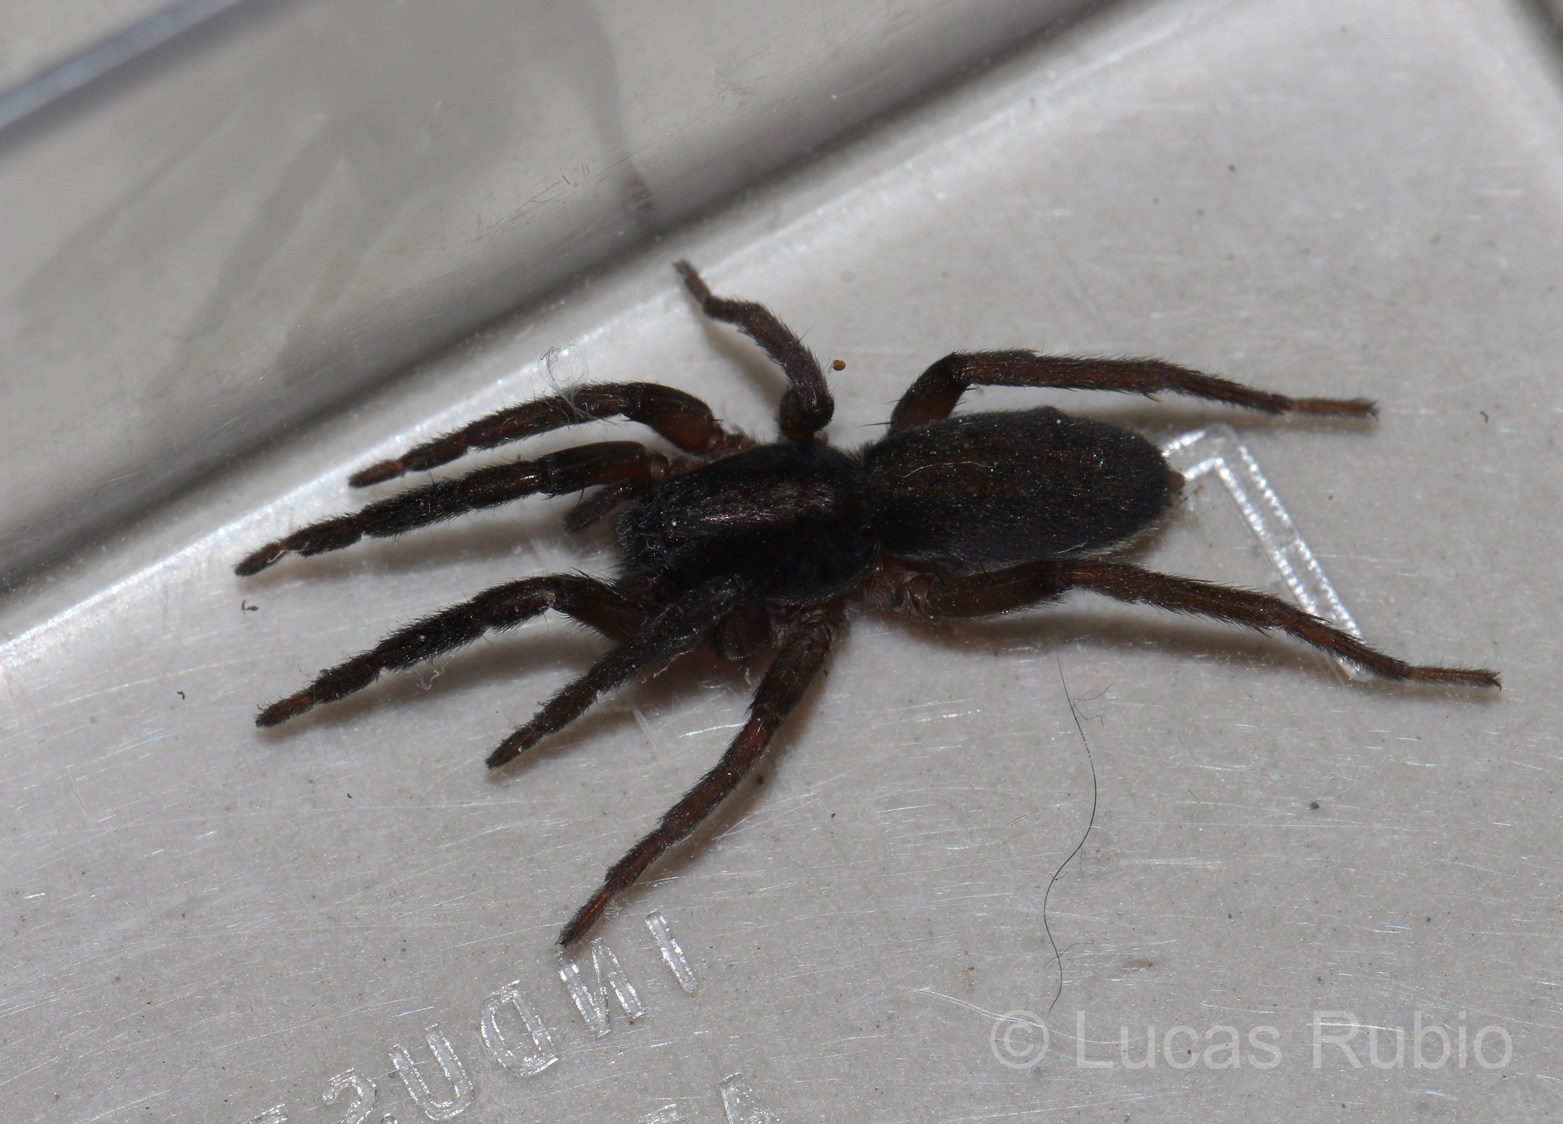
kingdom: Animalia
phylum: Arthropoda
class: Arachnida
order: Araneae
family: Miturgidae
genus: Teminius
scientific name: Teminius insularis
